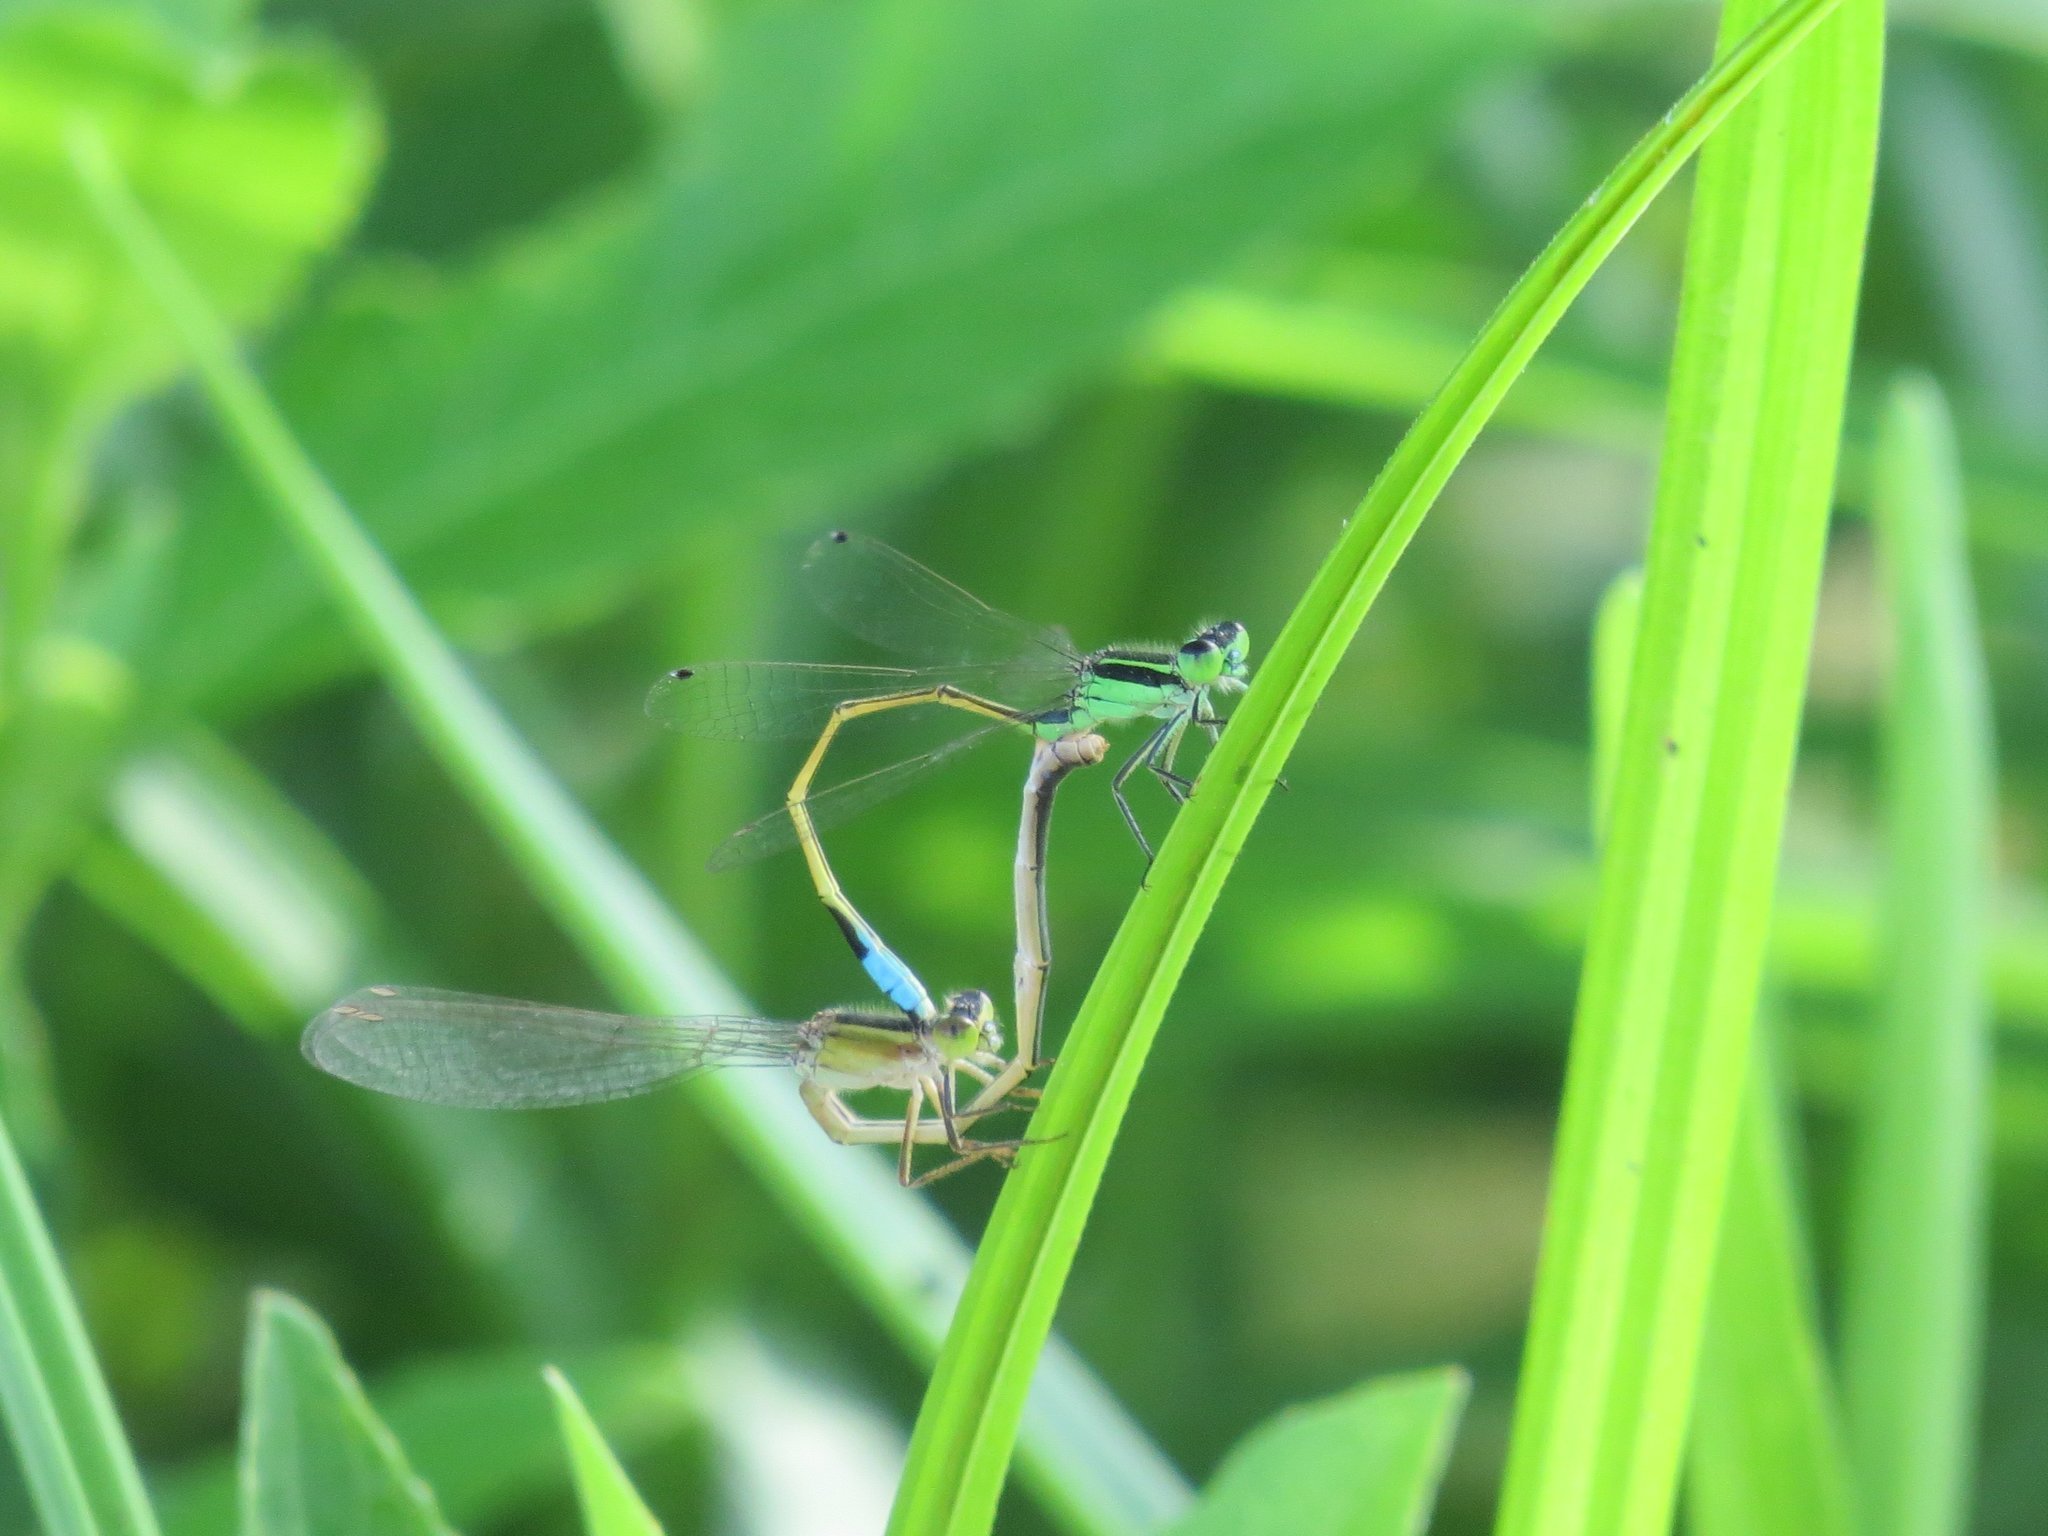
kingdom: Animalia
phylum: Arthropoda
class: Insecta
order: Odonata
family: Coenagrionidae
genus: Ischnura
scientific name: Ischnura ramburii
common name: Rambur's forktail
